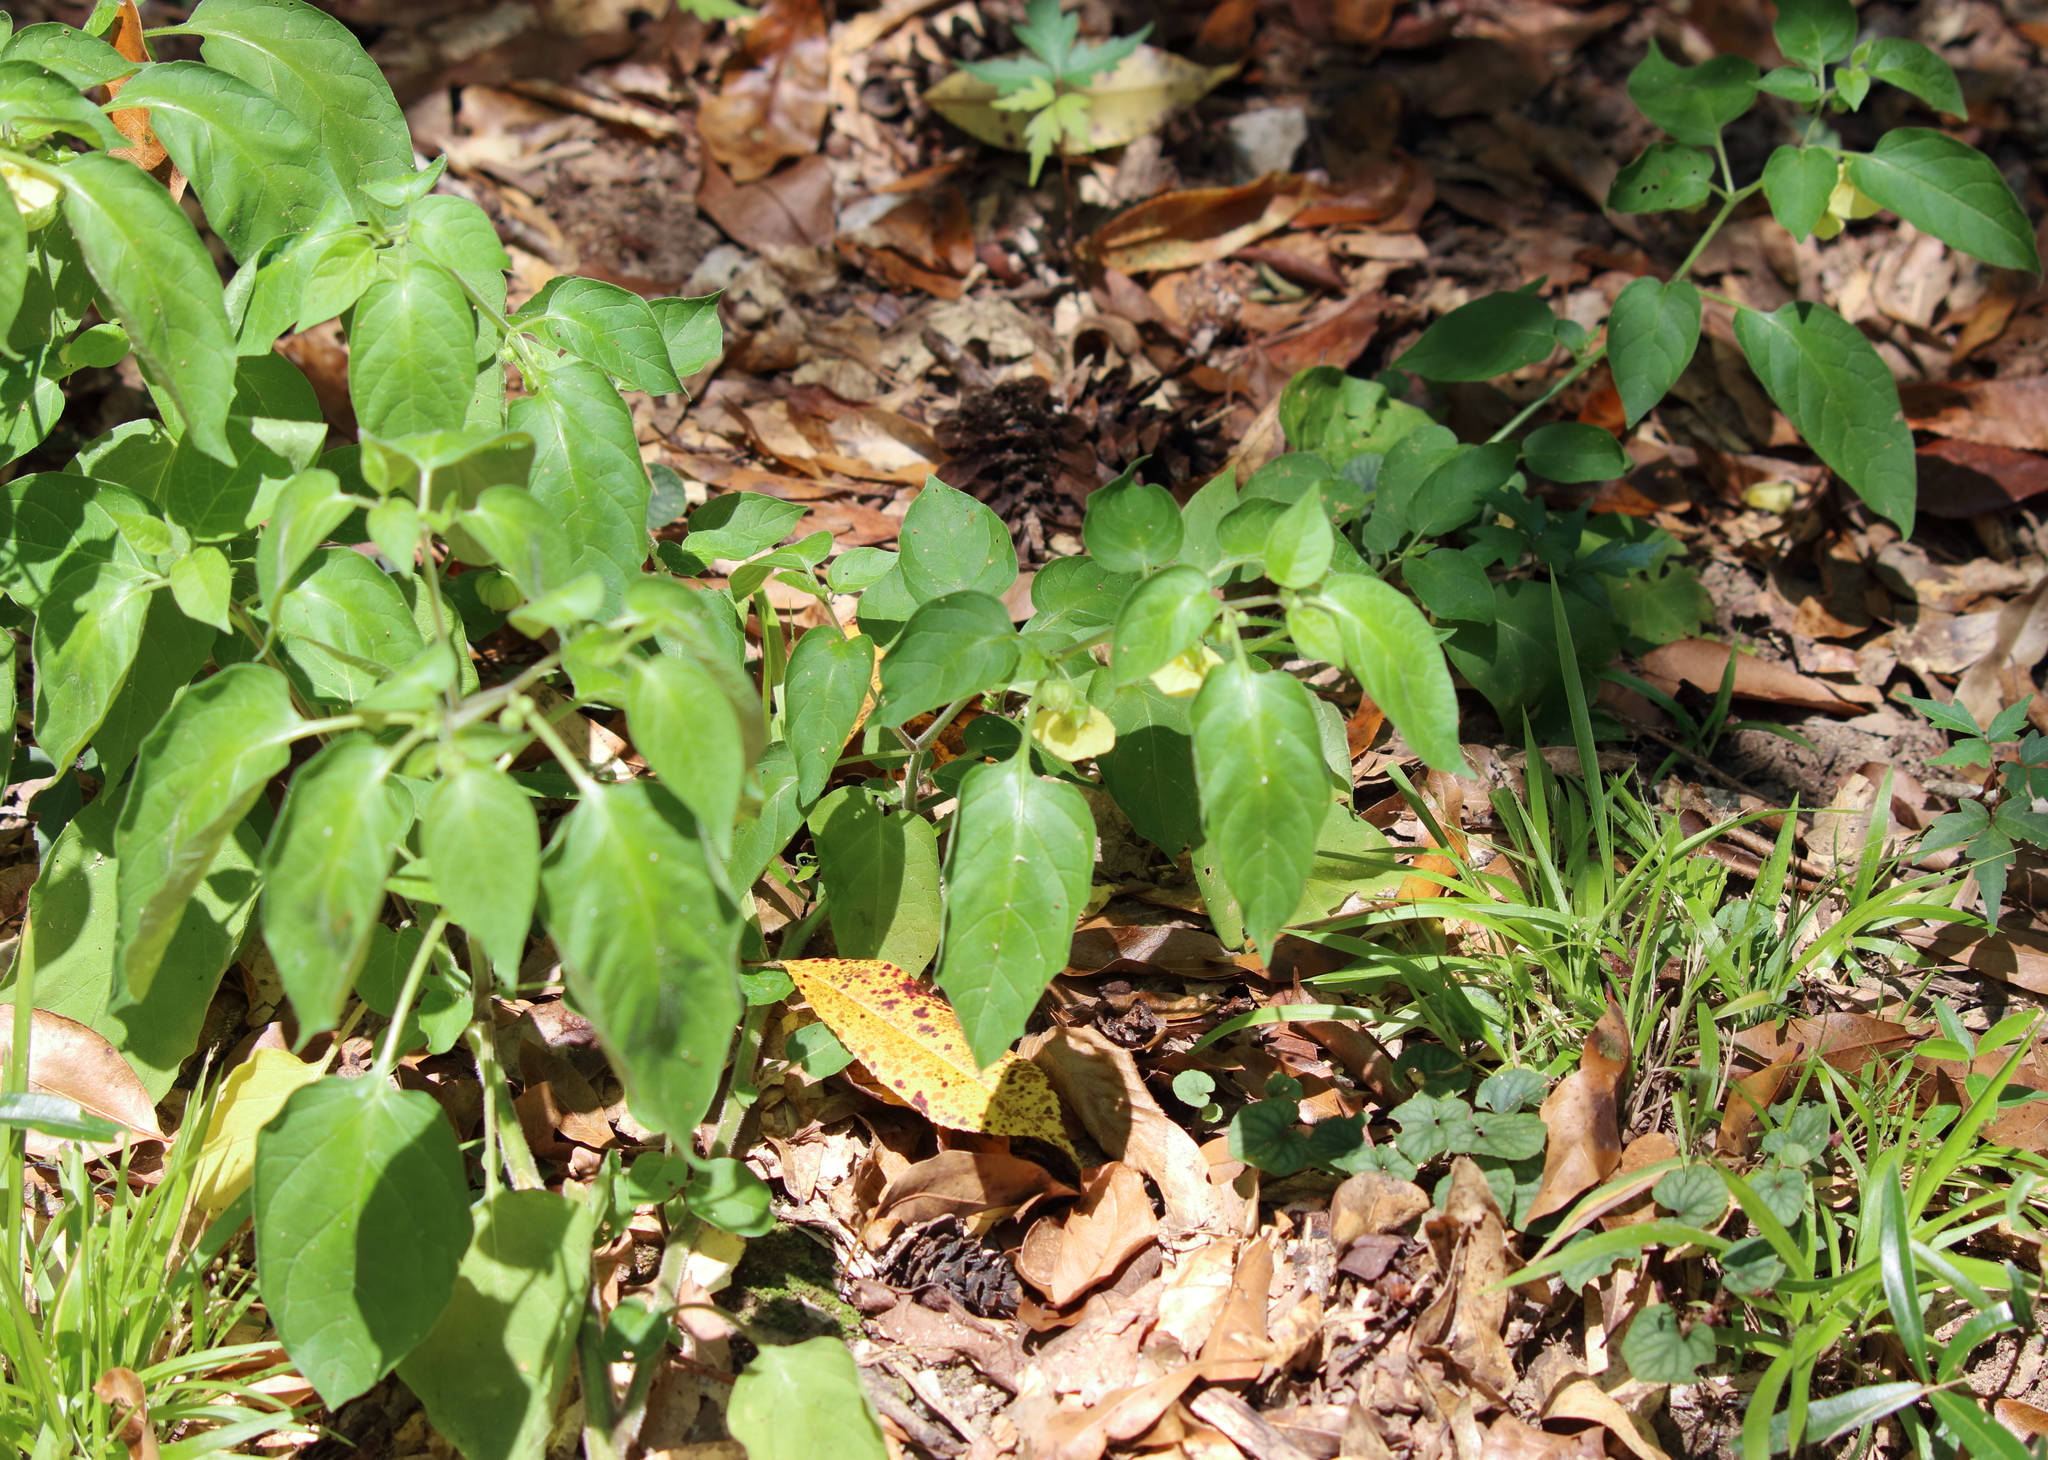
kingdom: Plantae
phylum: Tracheophyta
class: Magnoliopsida
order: Solanales
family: Solanaceae
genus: Calliphysalis
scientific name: Calliphysalis carpenteri
